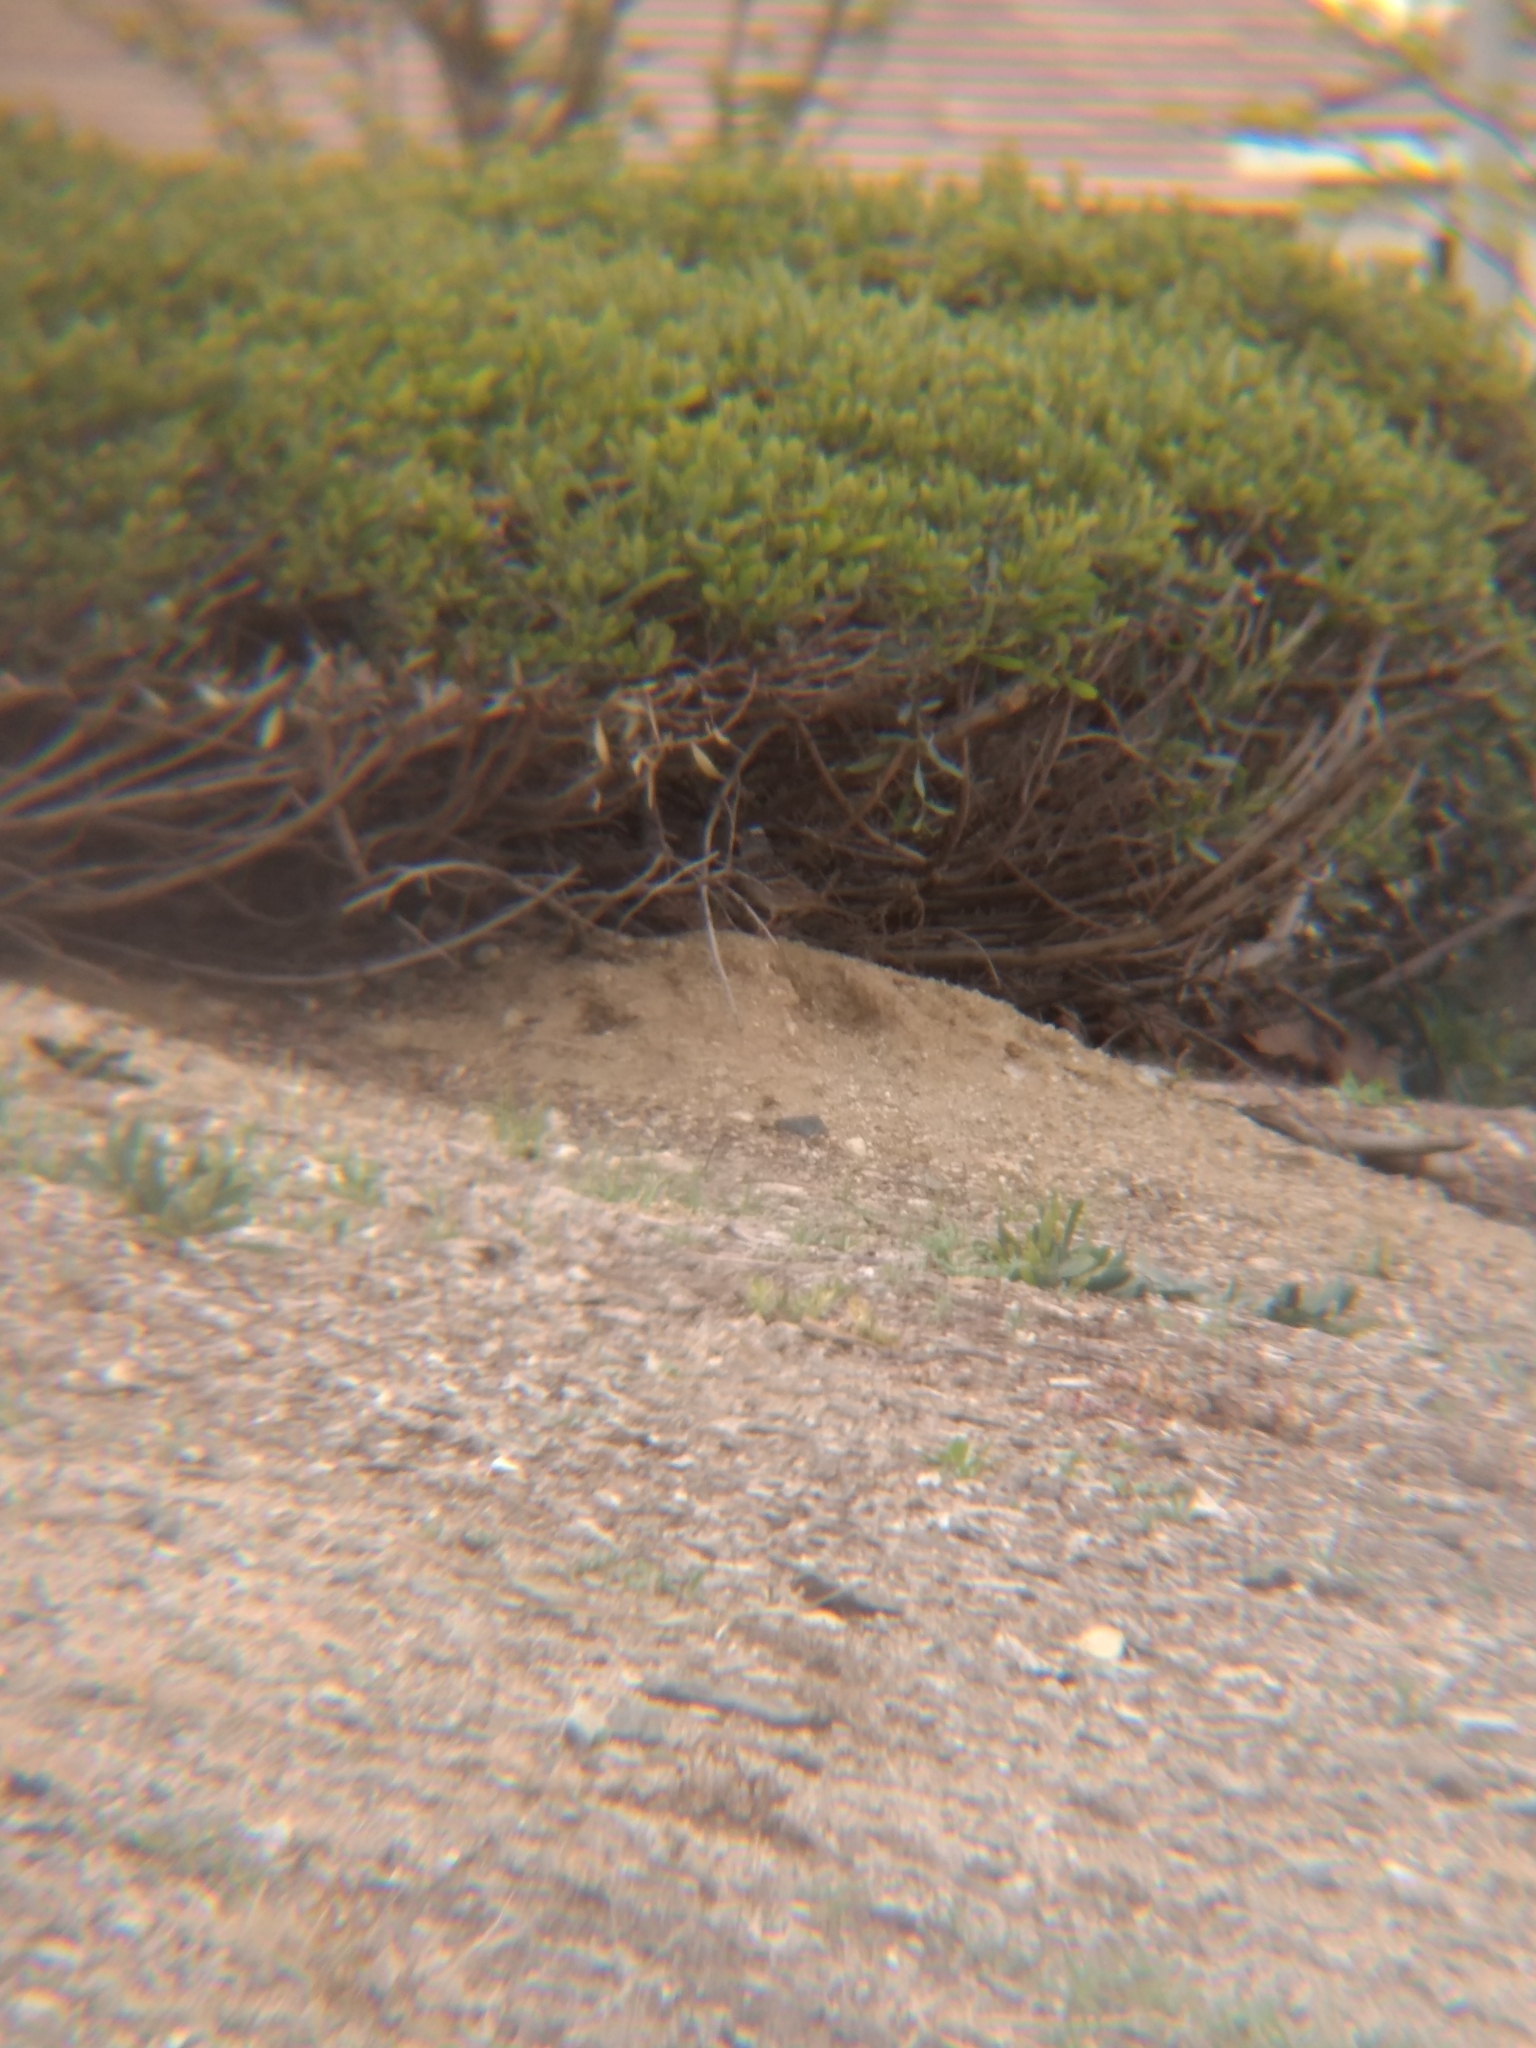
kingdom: Animalia
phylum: Chordata
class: Aves
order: Passeriformes
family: Passerellidae
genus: Zonotrichia
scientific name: Zonotrichia leucophrys
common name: White-crowned sparrow
